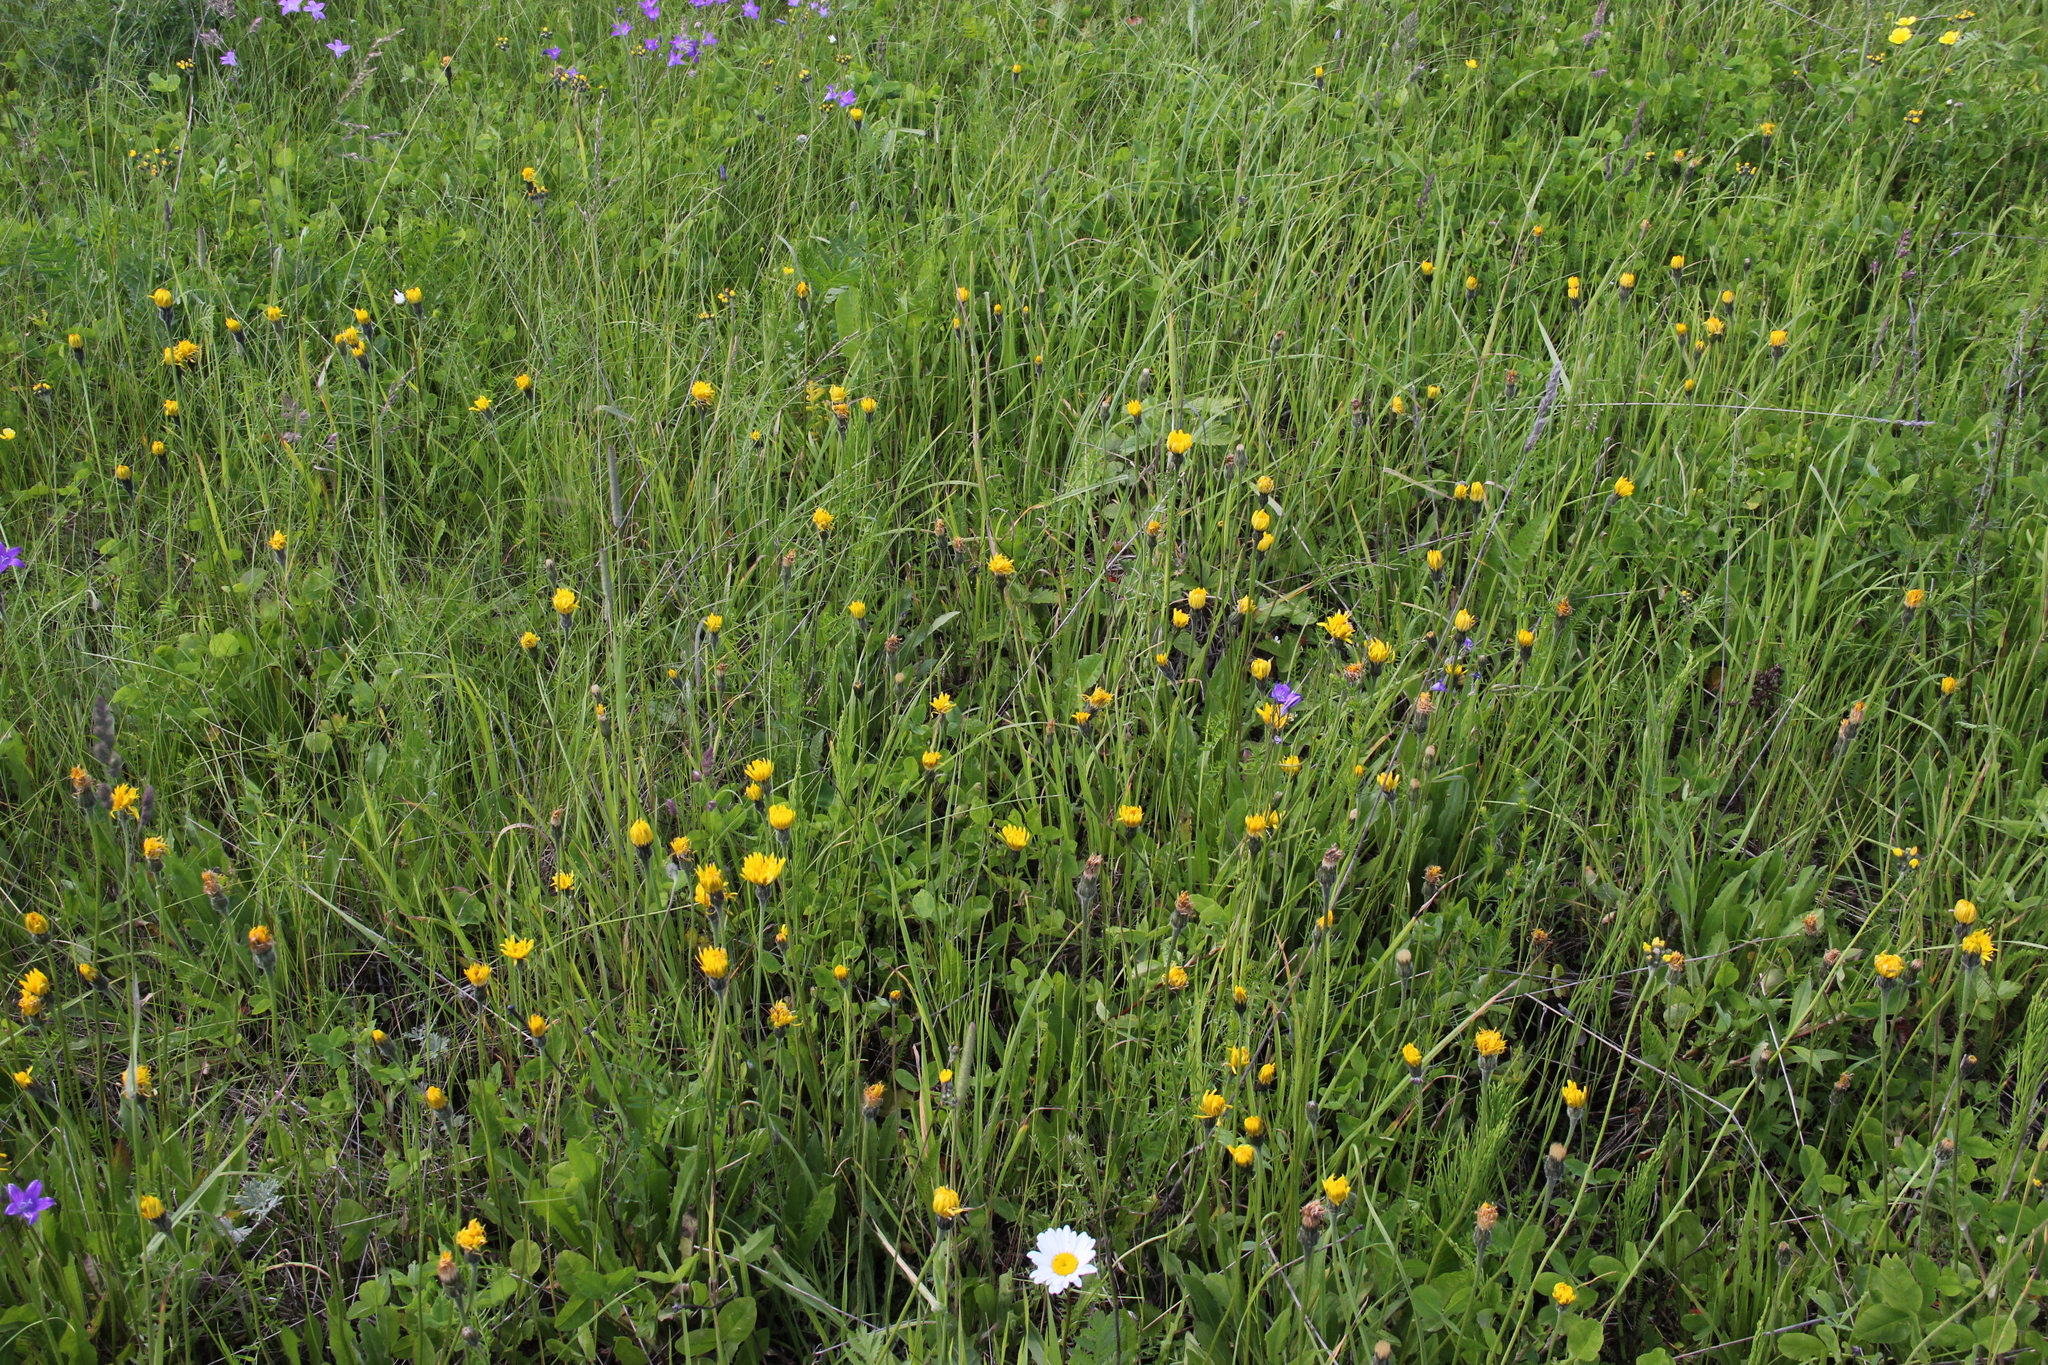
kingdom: Plantae
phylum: Tracheophyta
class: Magnoliopsida
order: Asterales
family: Asteraceae
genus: Leontodon
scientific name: Leontodon hispidus
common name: Rough hawkbit
